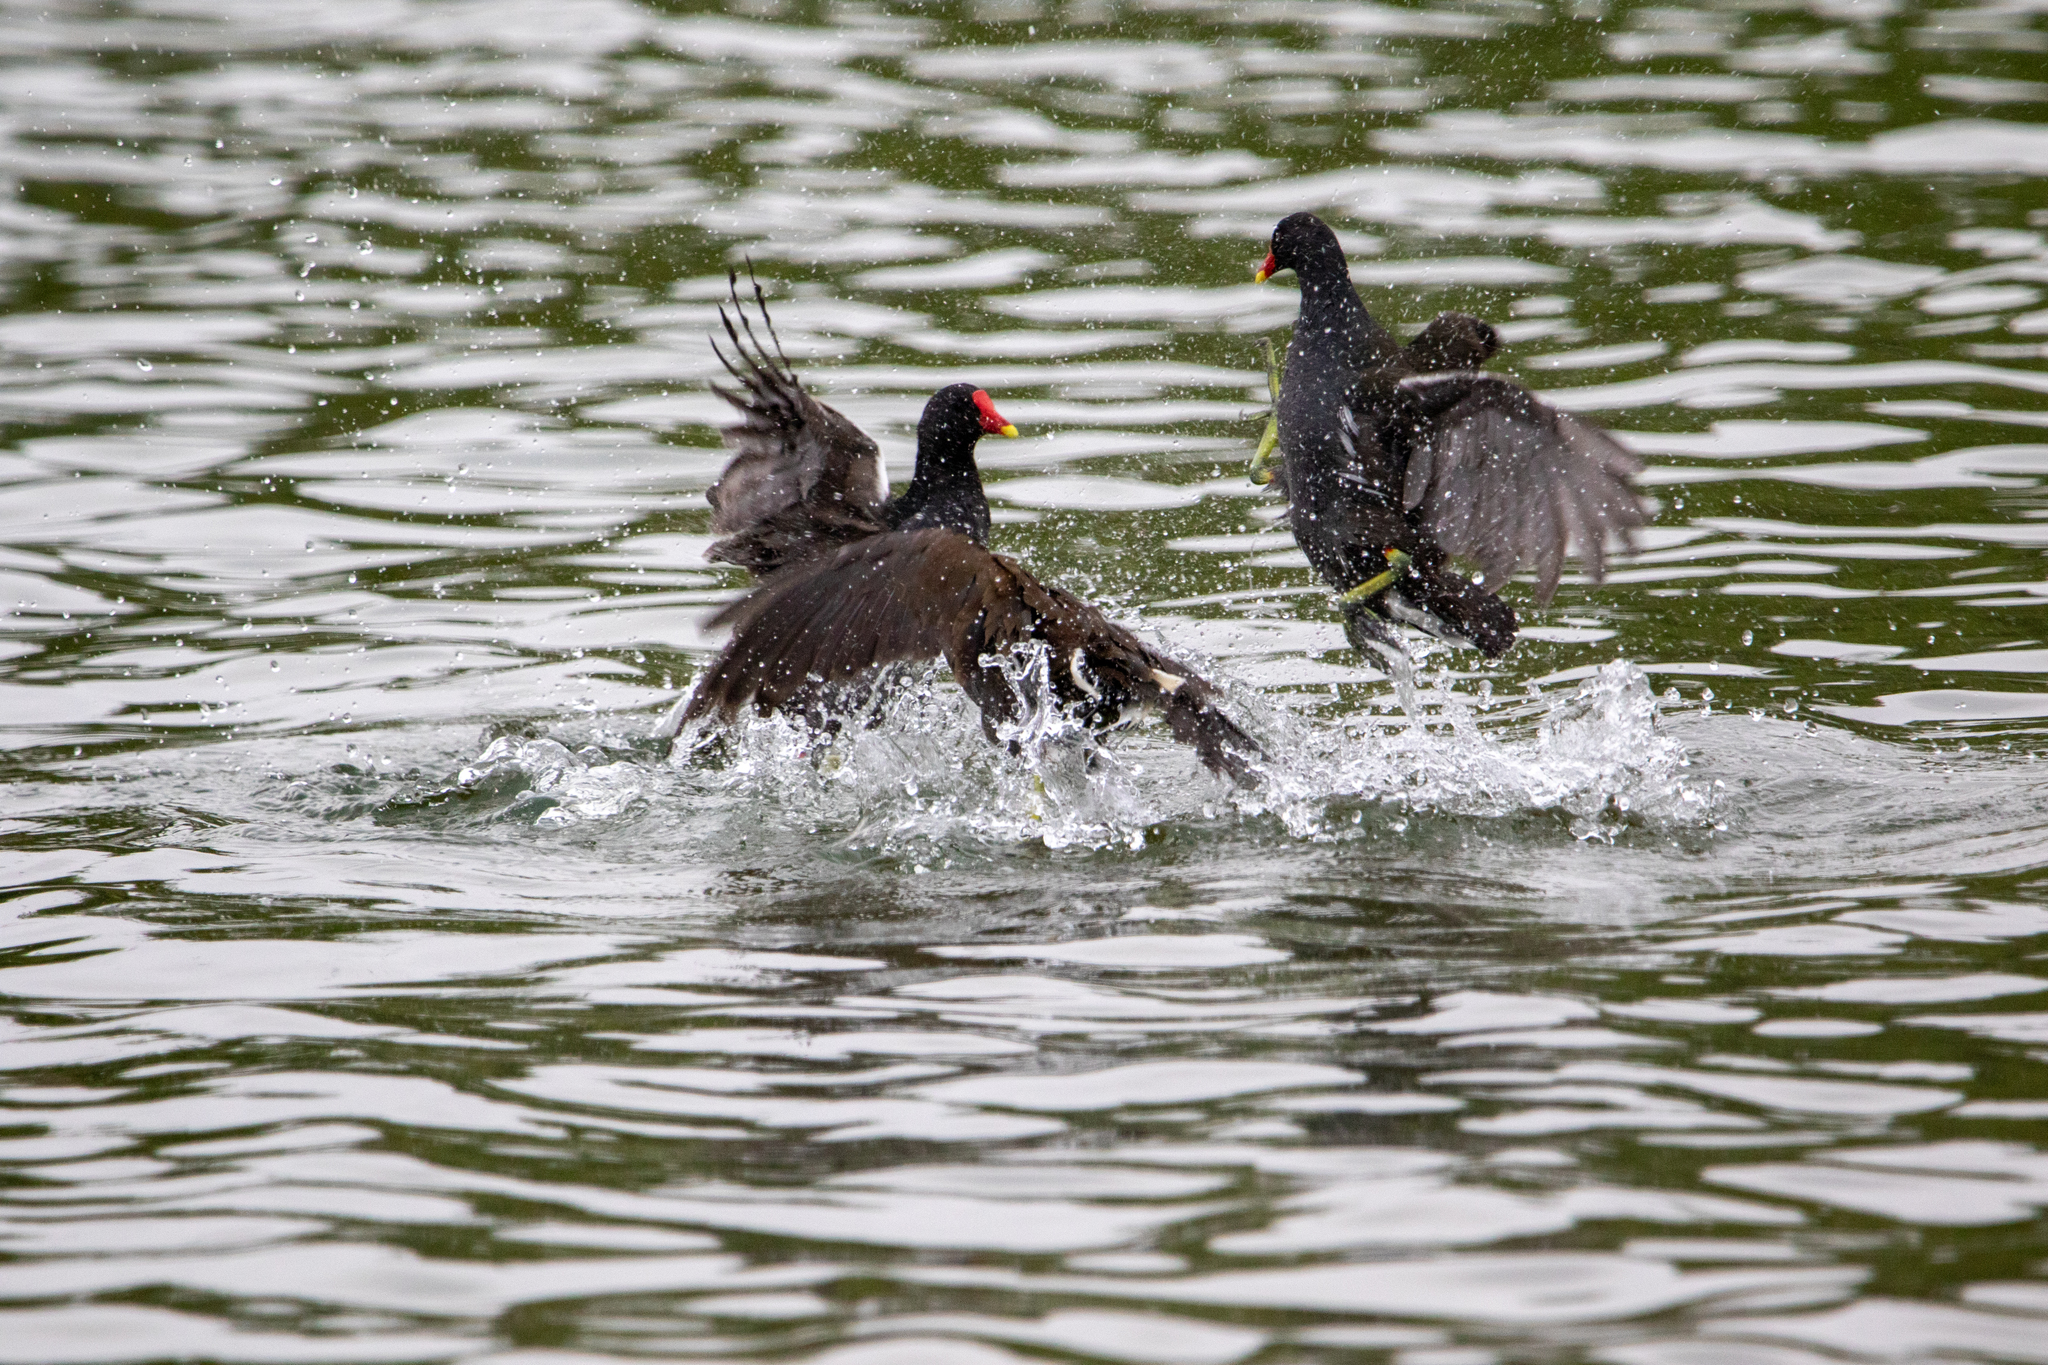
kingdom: Animalia
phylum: Chordata
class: Aves
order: Gruiformes
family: Rallidae
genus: Gallinula
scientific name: Gallinula chloropus
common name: Common moorhen
